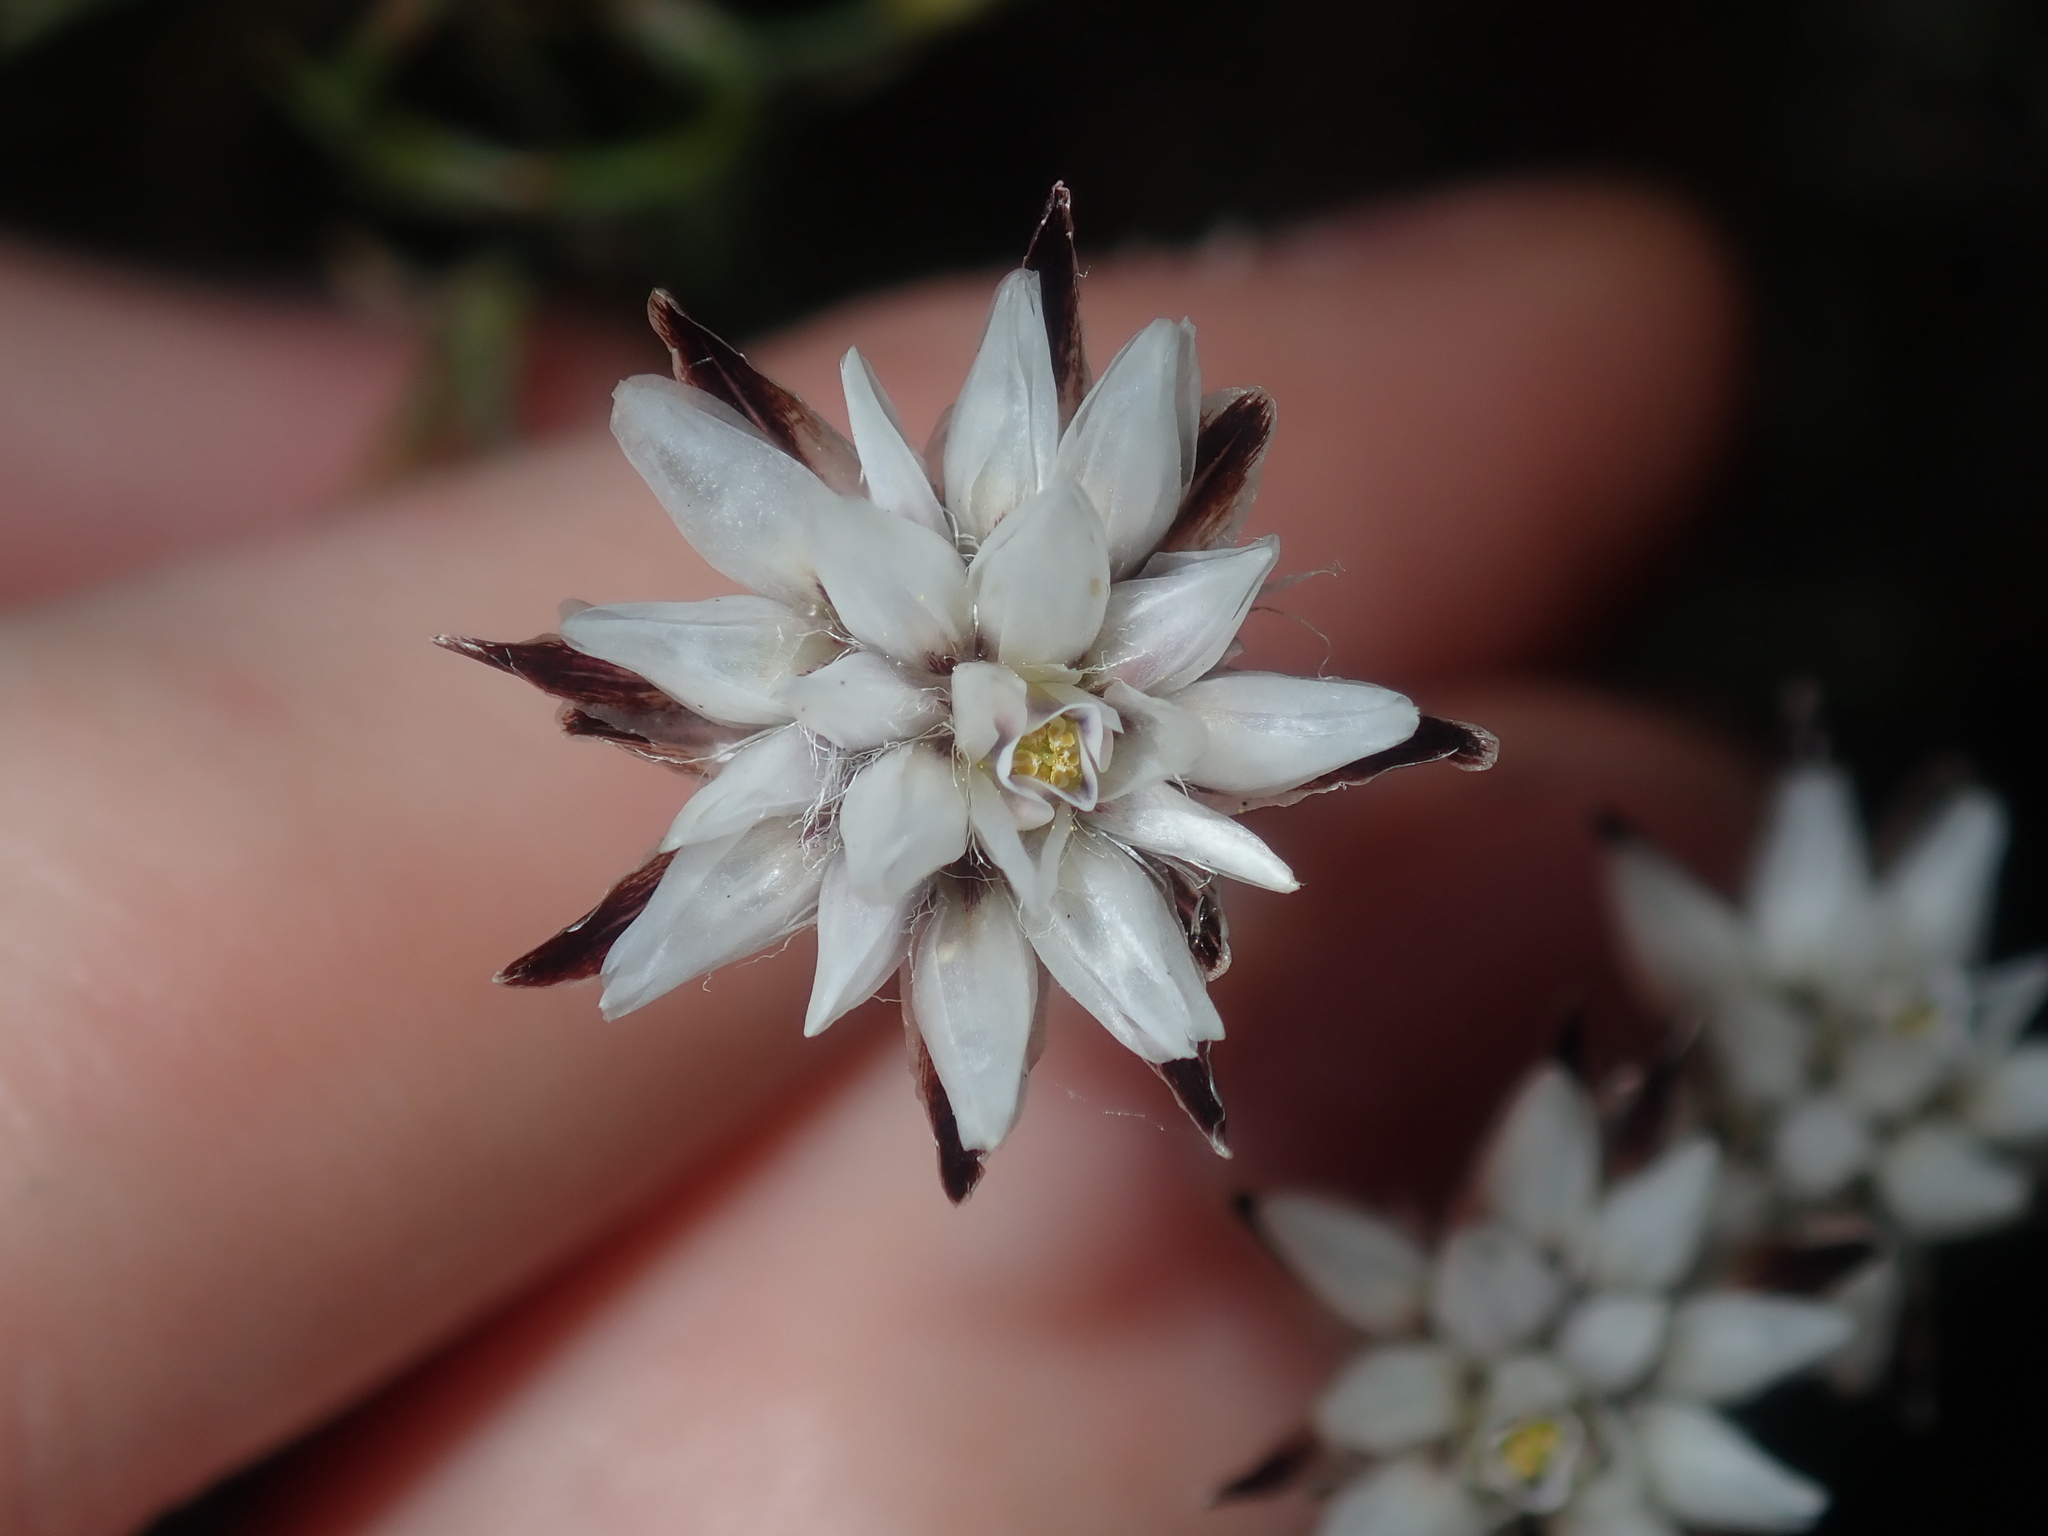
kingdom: Plantae
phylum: Tracheophyta
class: Liliopsida
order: Asparagales
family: Asparagaceae
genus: Laxmannia
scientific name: Laxmannia omnifertilis
